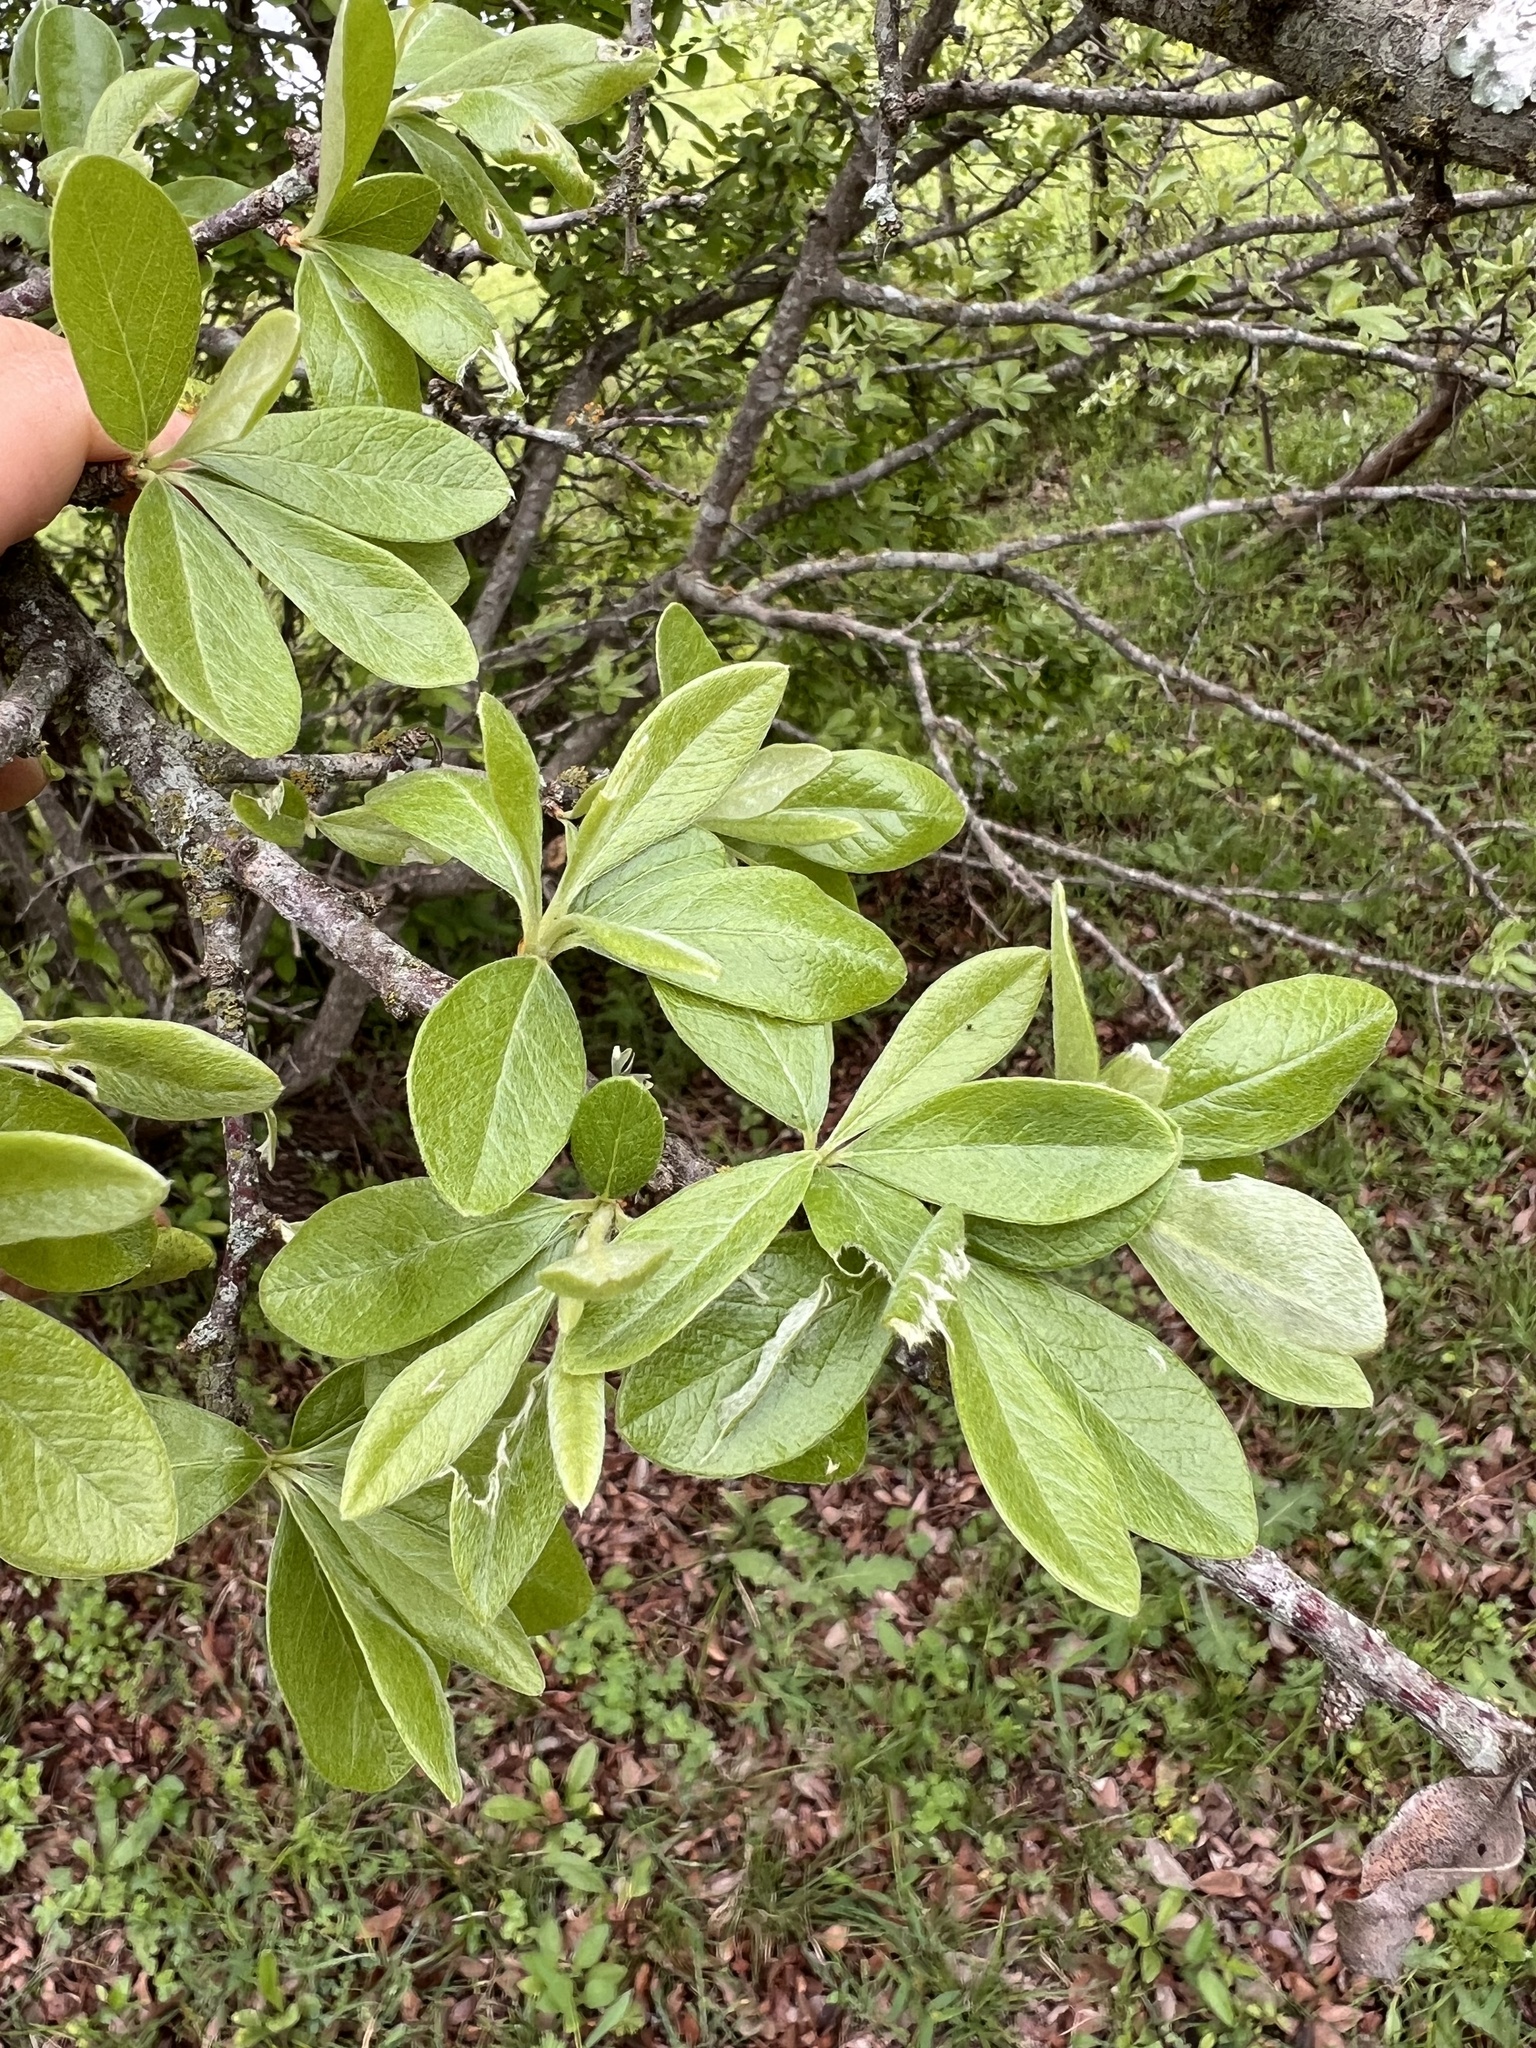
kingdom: Plantae
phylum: Tracheophyta
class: Magnoliopsida
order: Ericales
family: Sapotaceae
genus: Sideroxylon
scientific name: Sideroxylon lanuginosum
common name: Chittamwood
